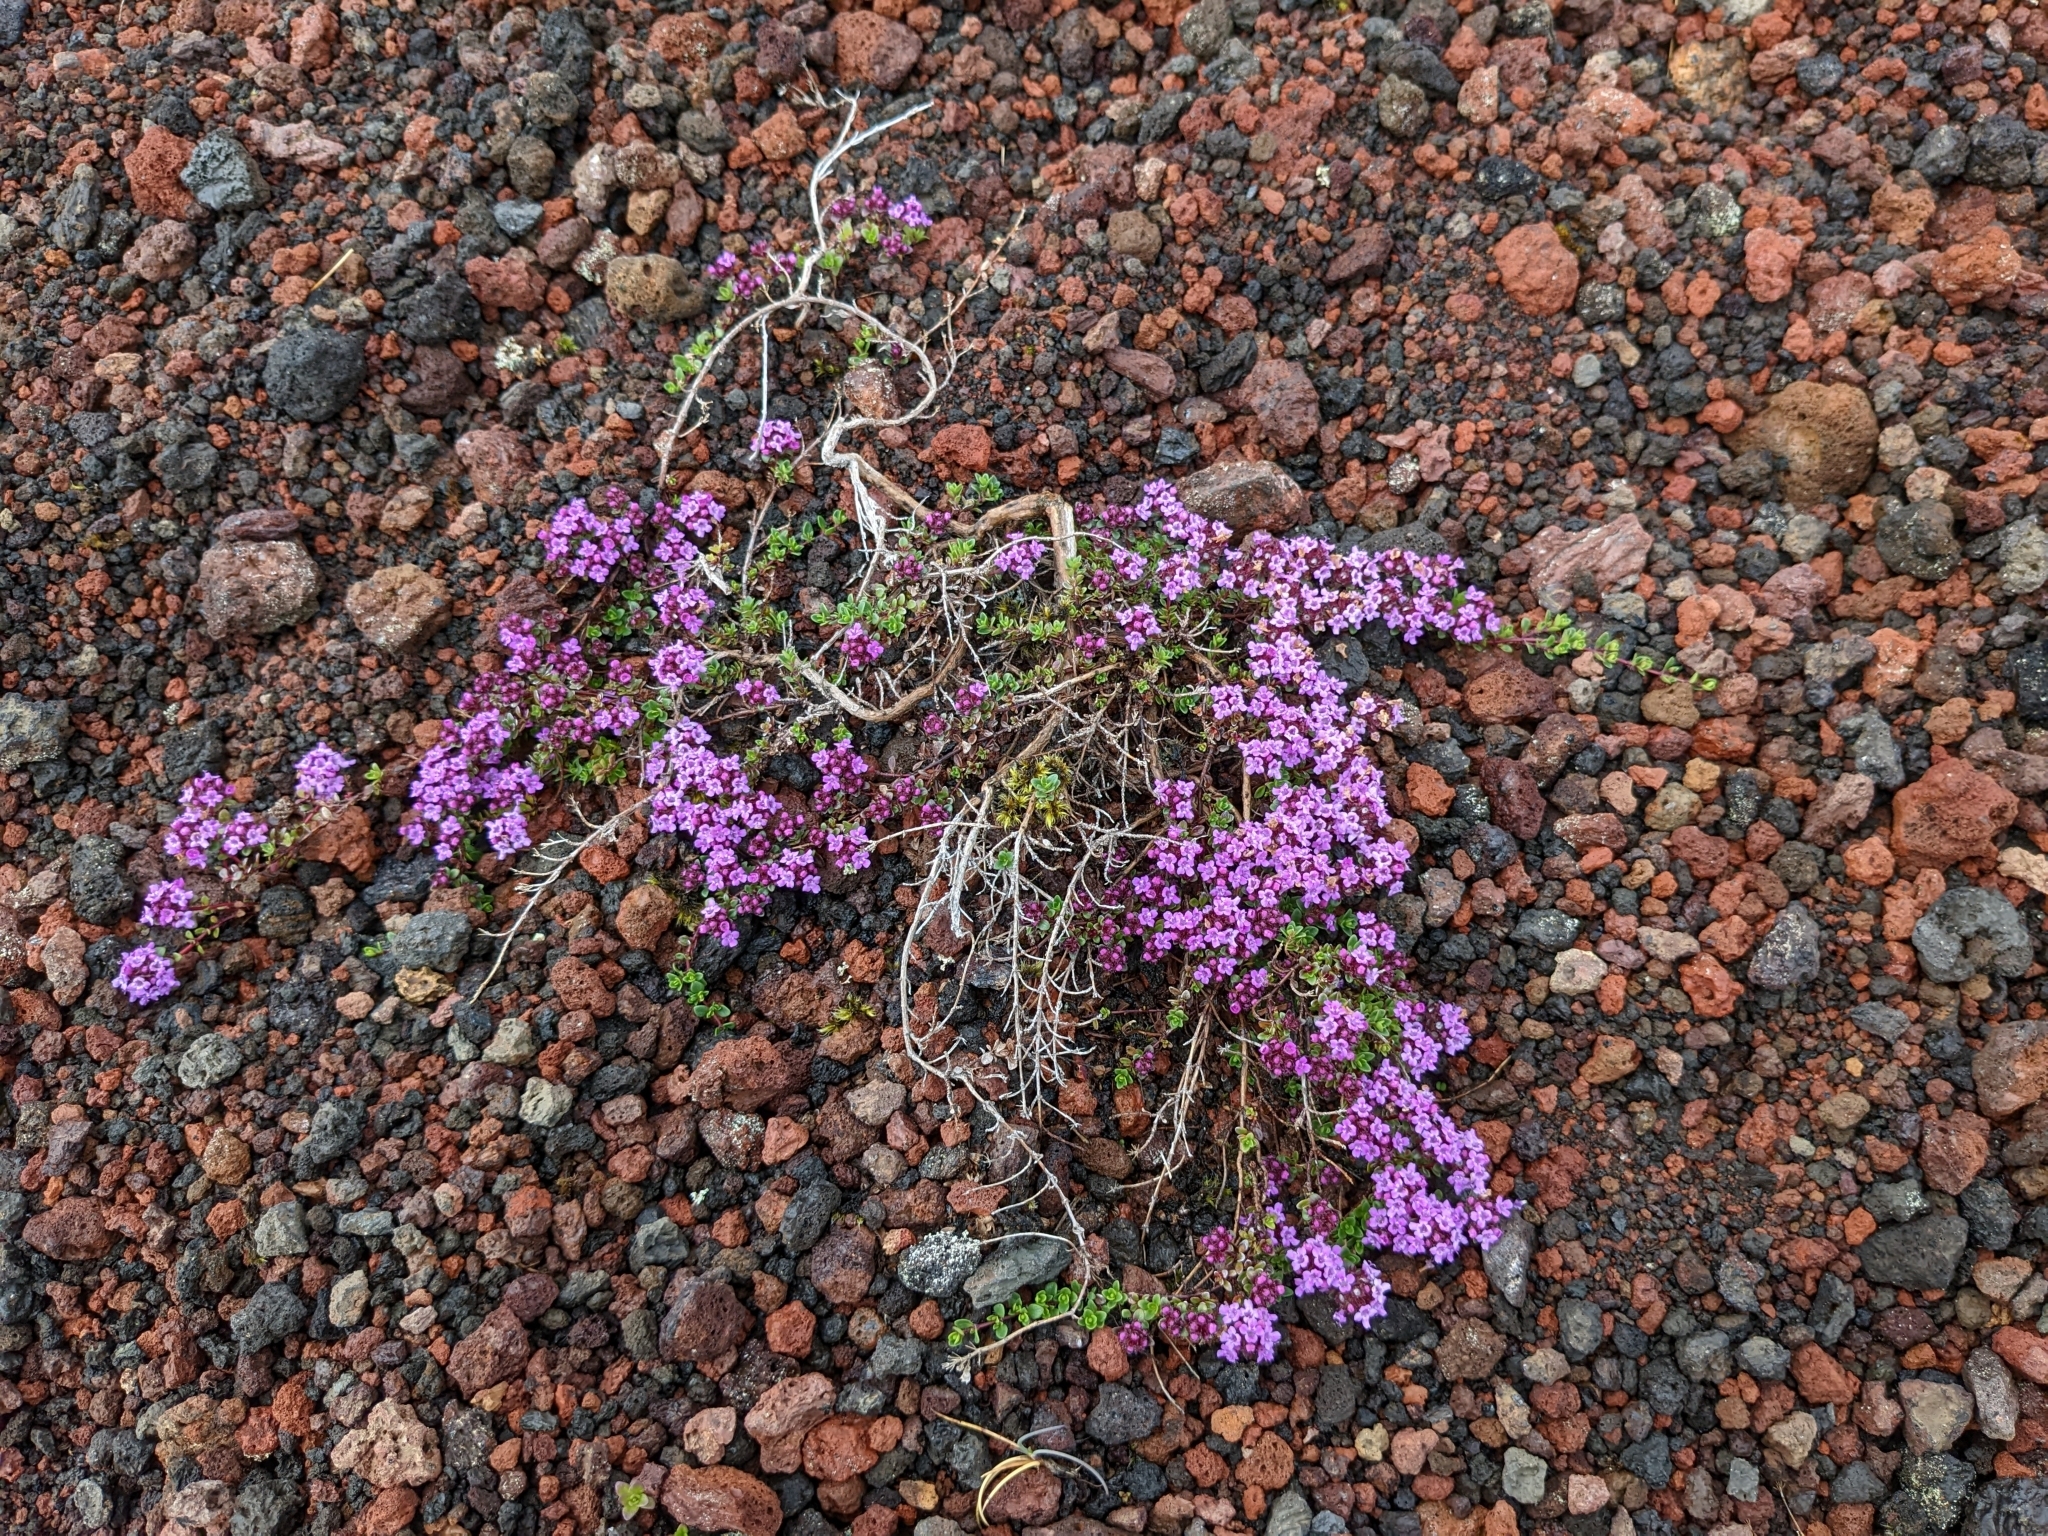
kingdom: Plantae
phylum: Tracheophyta
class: Magnoliopsida
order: Lamiales
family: Lamiaceae
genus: Thymus
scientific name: Thymus praecox
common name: Wild thyme
